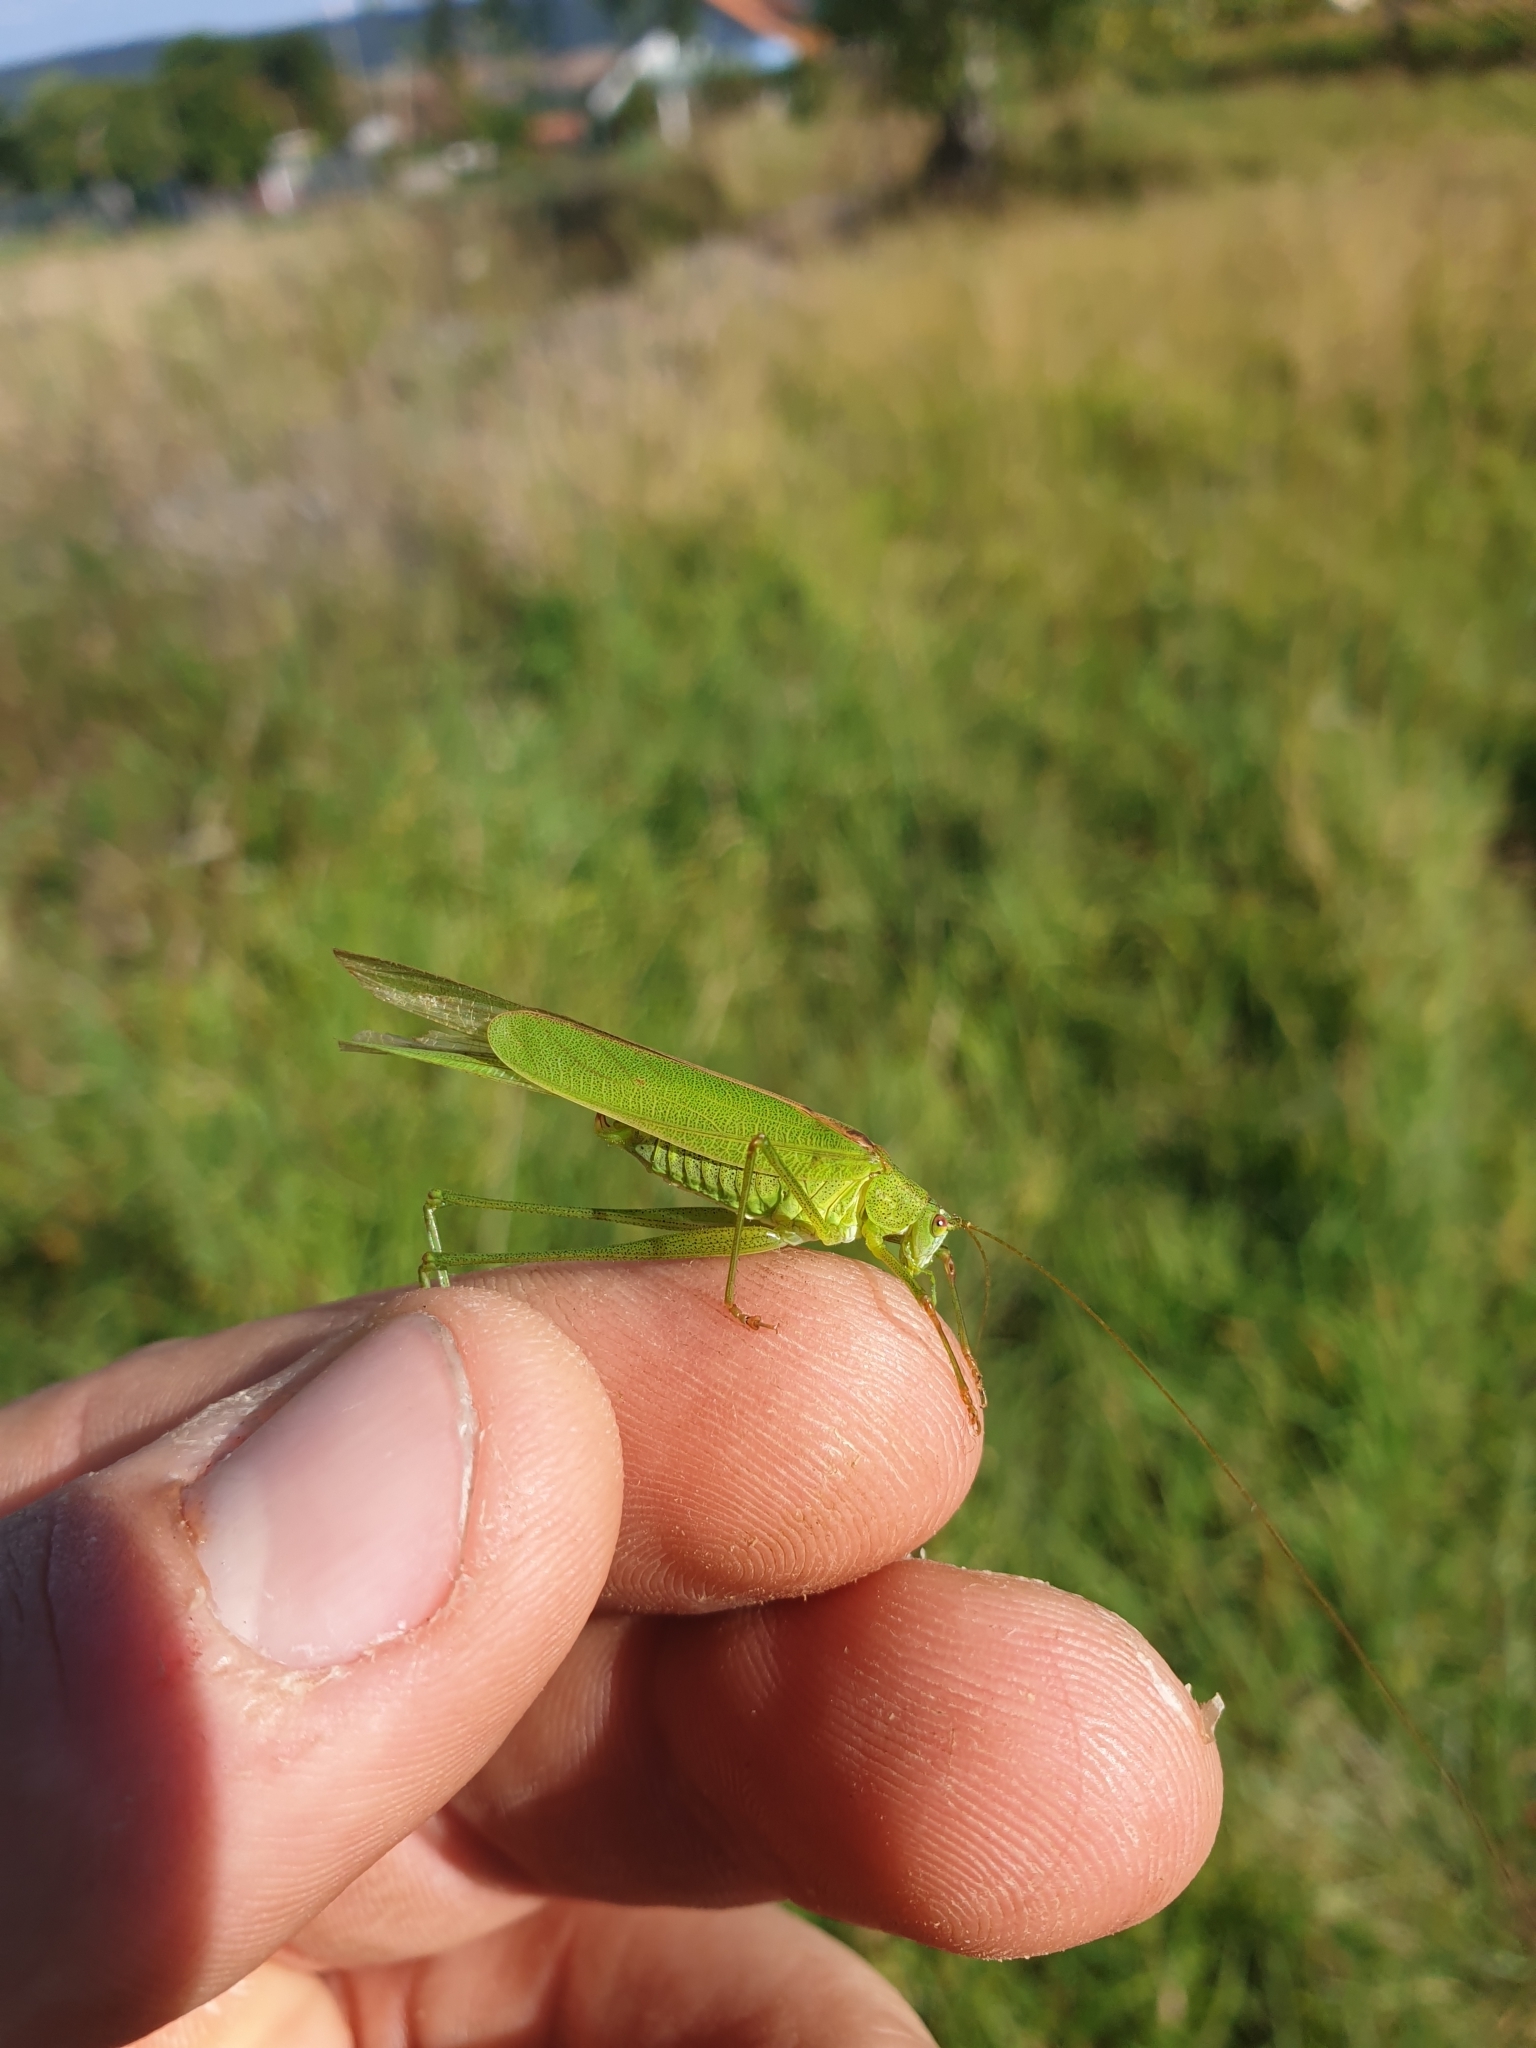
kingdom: Animalia
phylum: Arthropoda
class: Insecta
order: Orthoptera
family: Tettigoniidae
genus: Phaneroptera
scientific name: Phaneroptera falcata
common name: Sickle-bearing bush-cricket
